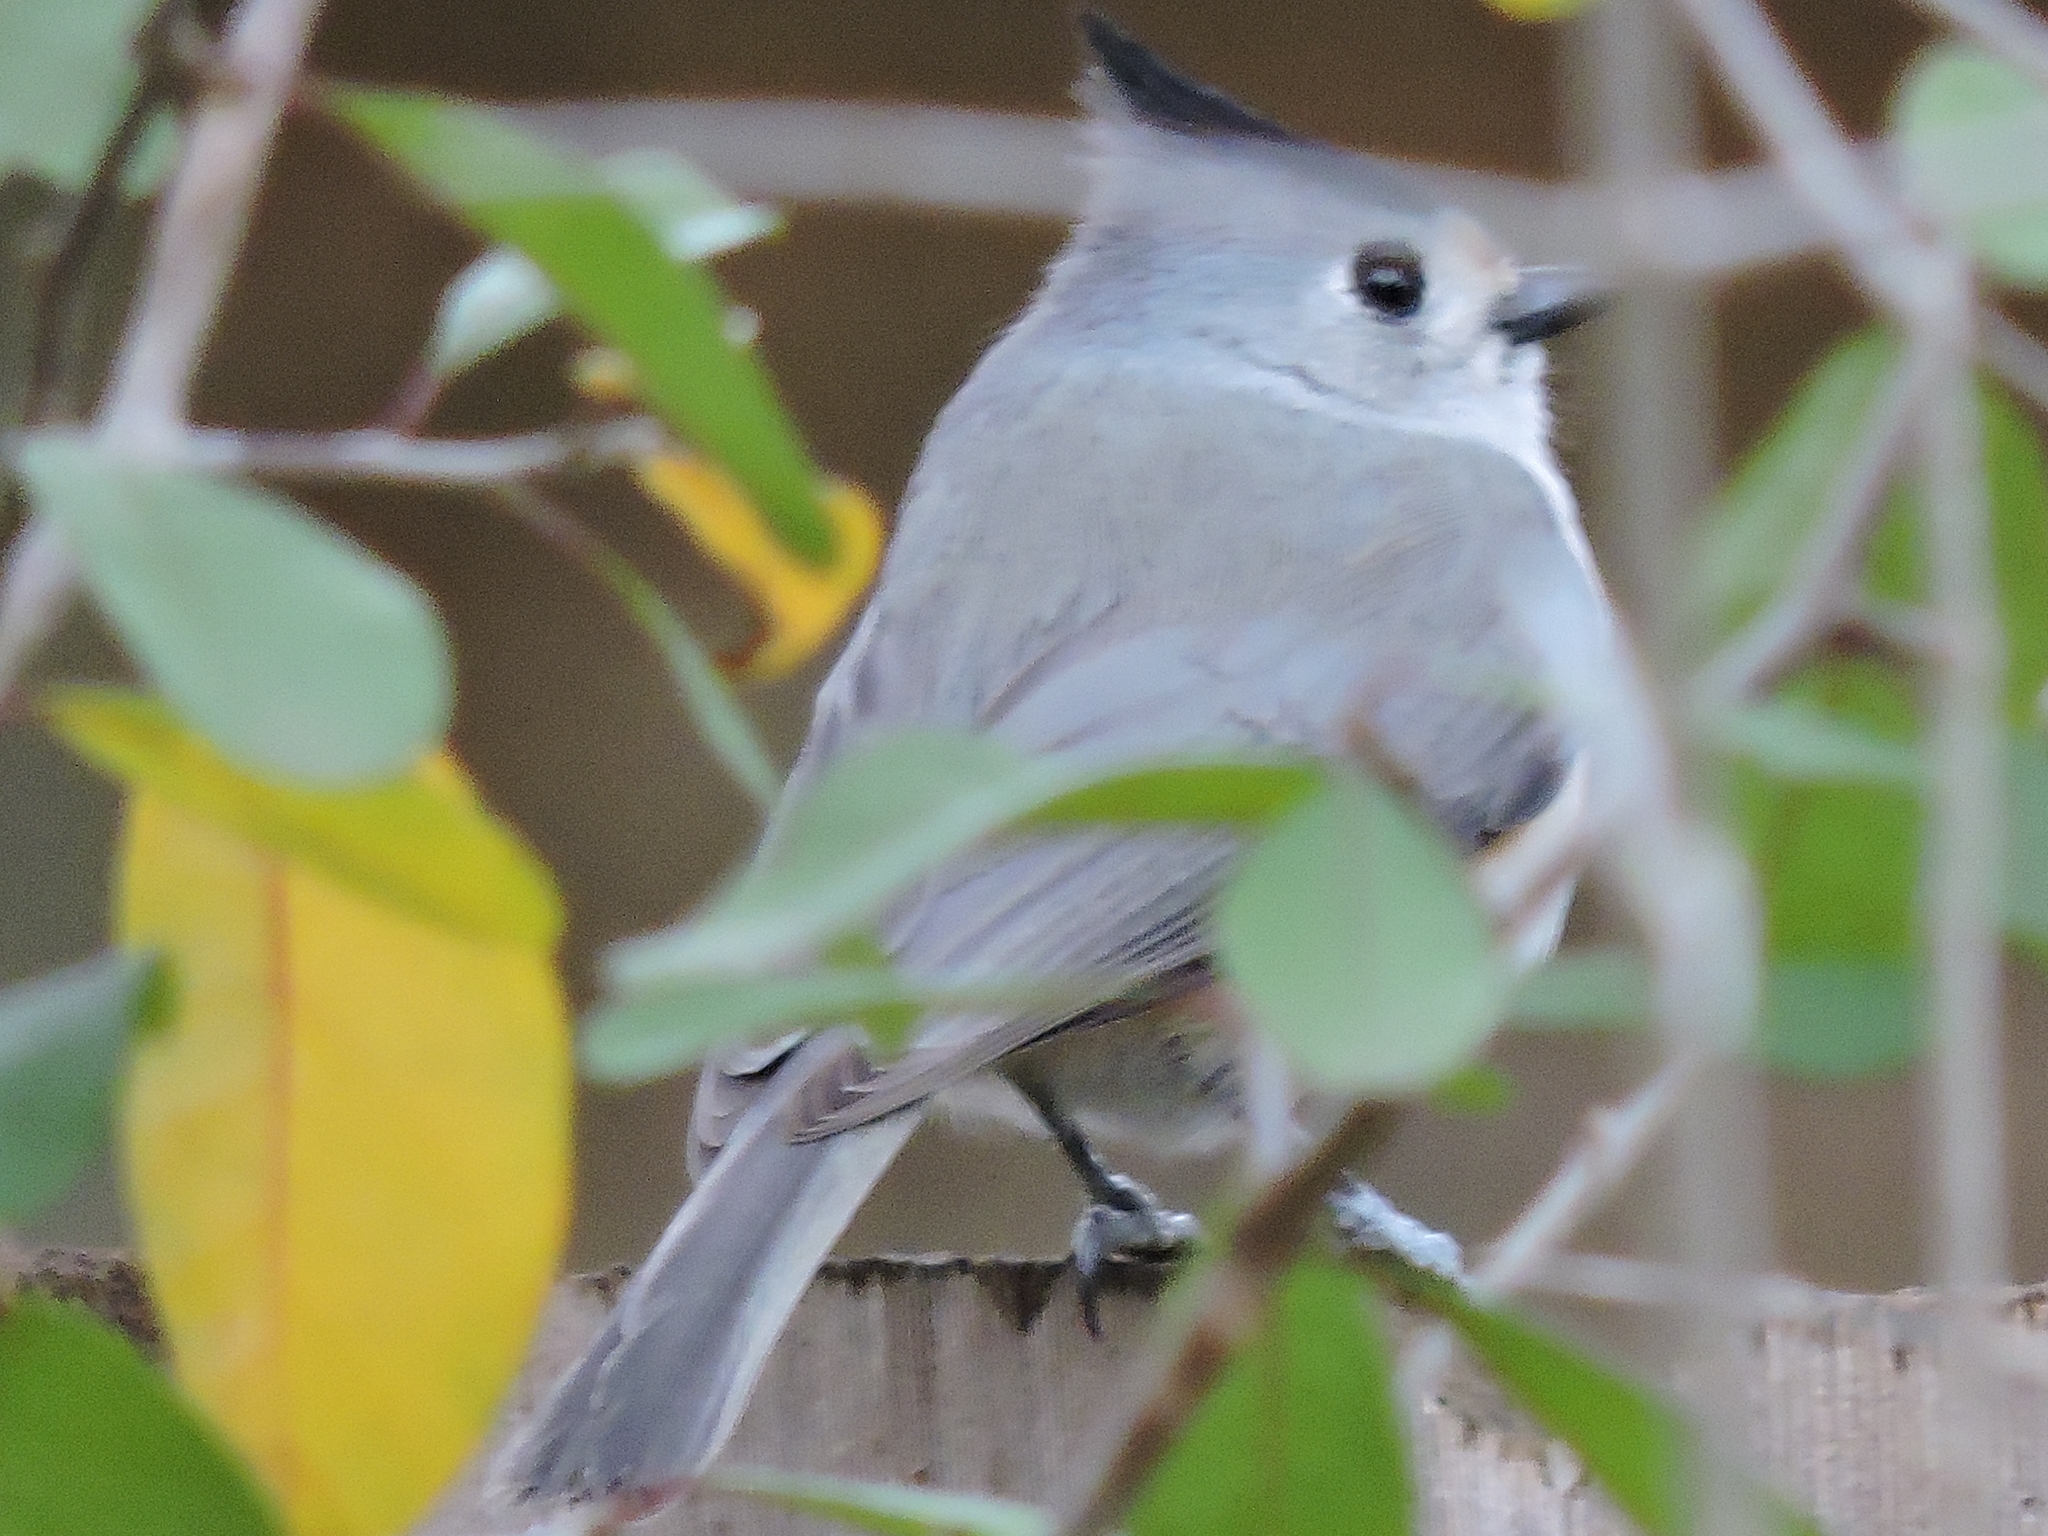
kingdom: Animalia
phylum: Chordata
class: Aves
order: Passeriformes
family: Paridae
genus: Baeolophus
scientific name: Baeolophus atricristatus
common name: Black-crested titmouse
